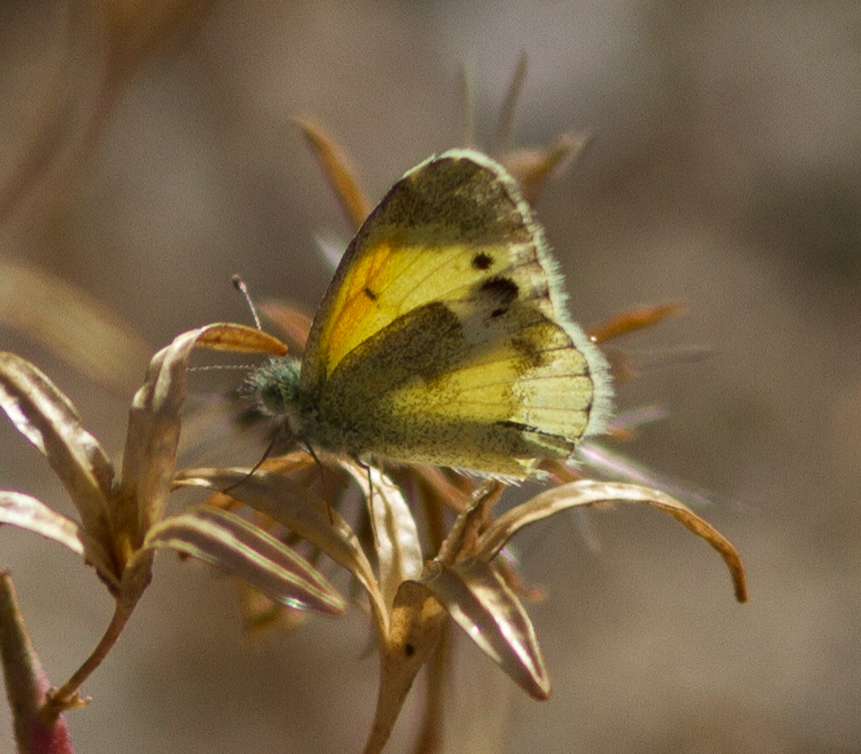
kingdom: Animalia
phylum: Arthropoda
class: Insecta
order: Lepidoptera
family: Pieridae
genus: Nathalis
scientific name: Nathalis iole
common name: Dainty sulphur
